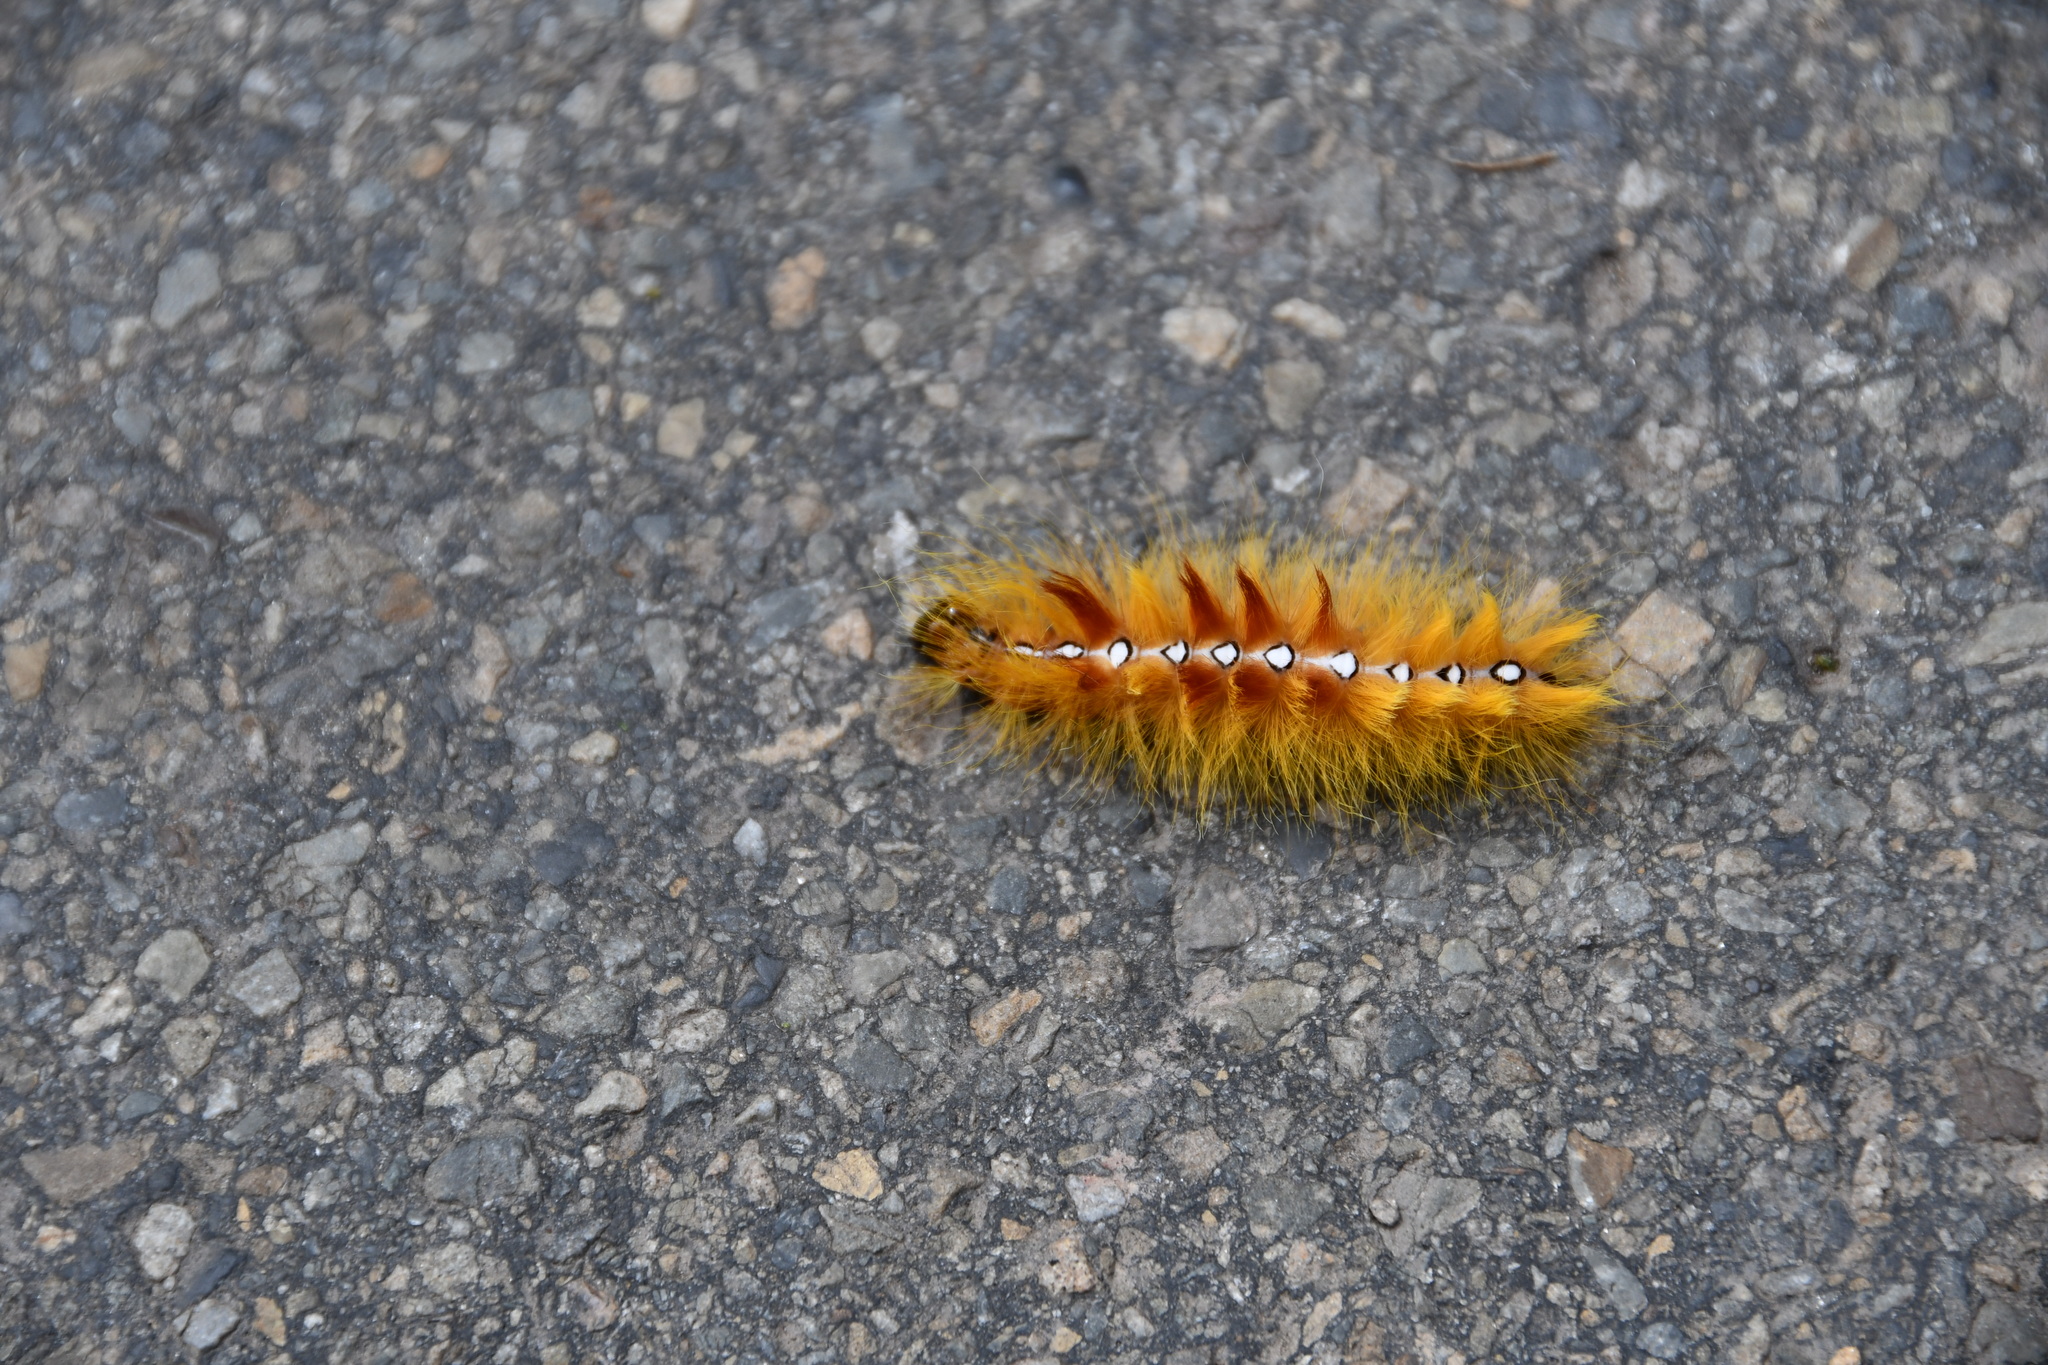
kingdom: Animalia
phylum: Arthropoda
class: Insecta
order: Lepidoptera
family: Noctuidae
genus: Acronicta
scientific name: Acronicta aceris
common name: Sycamore
